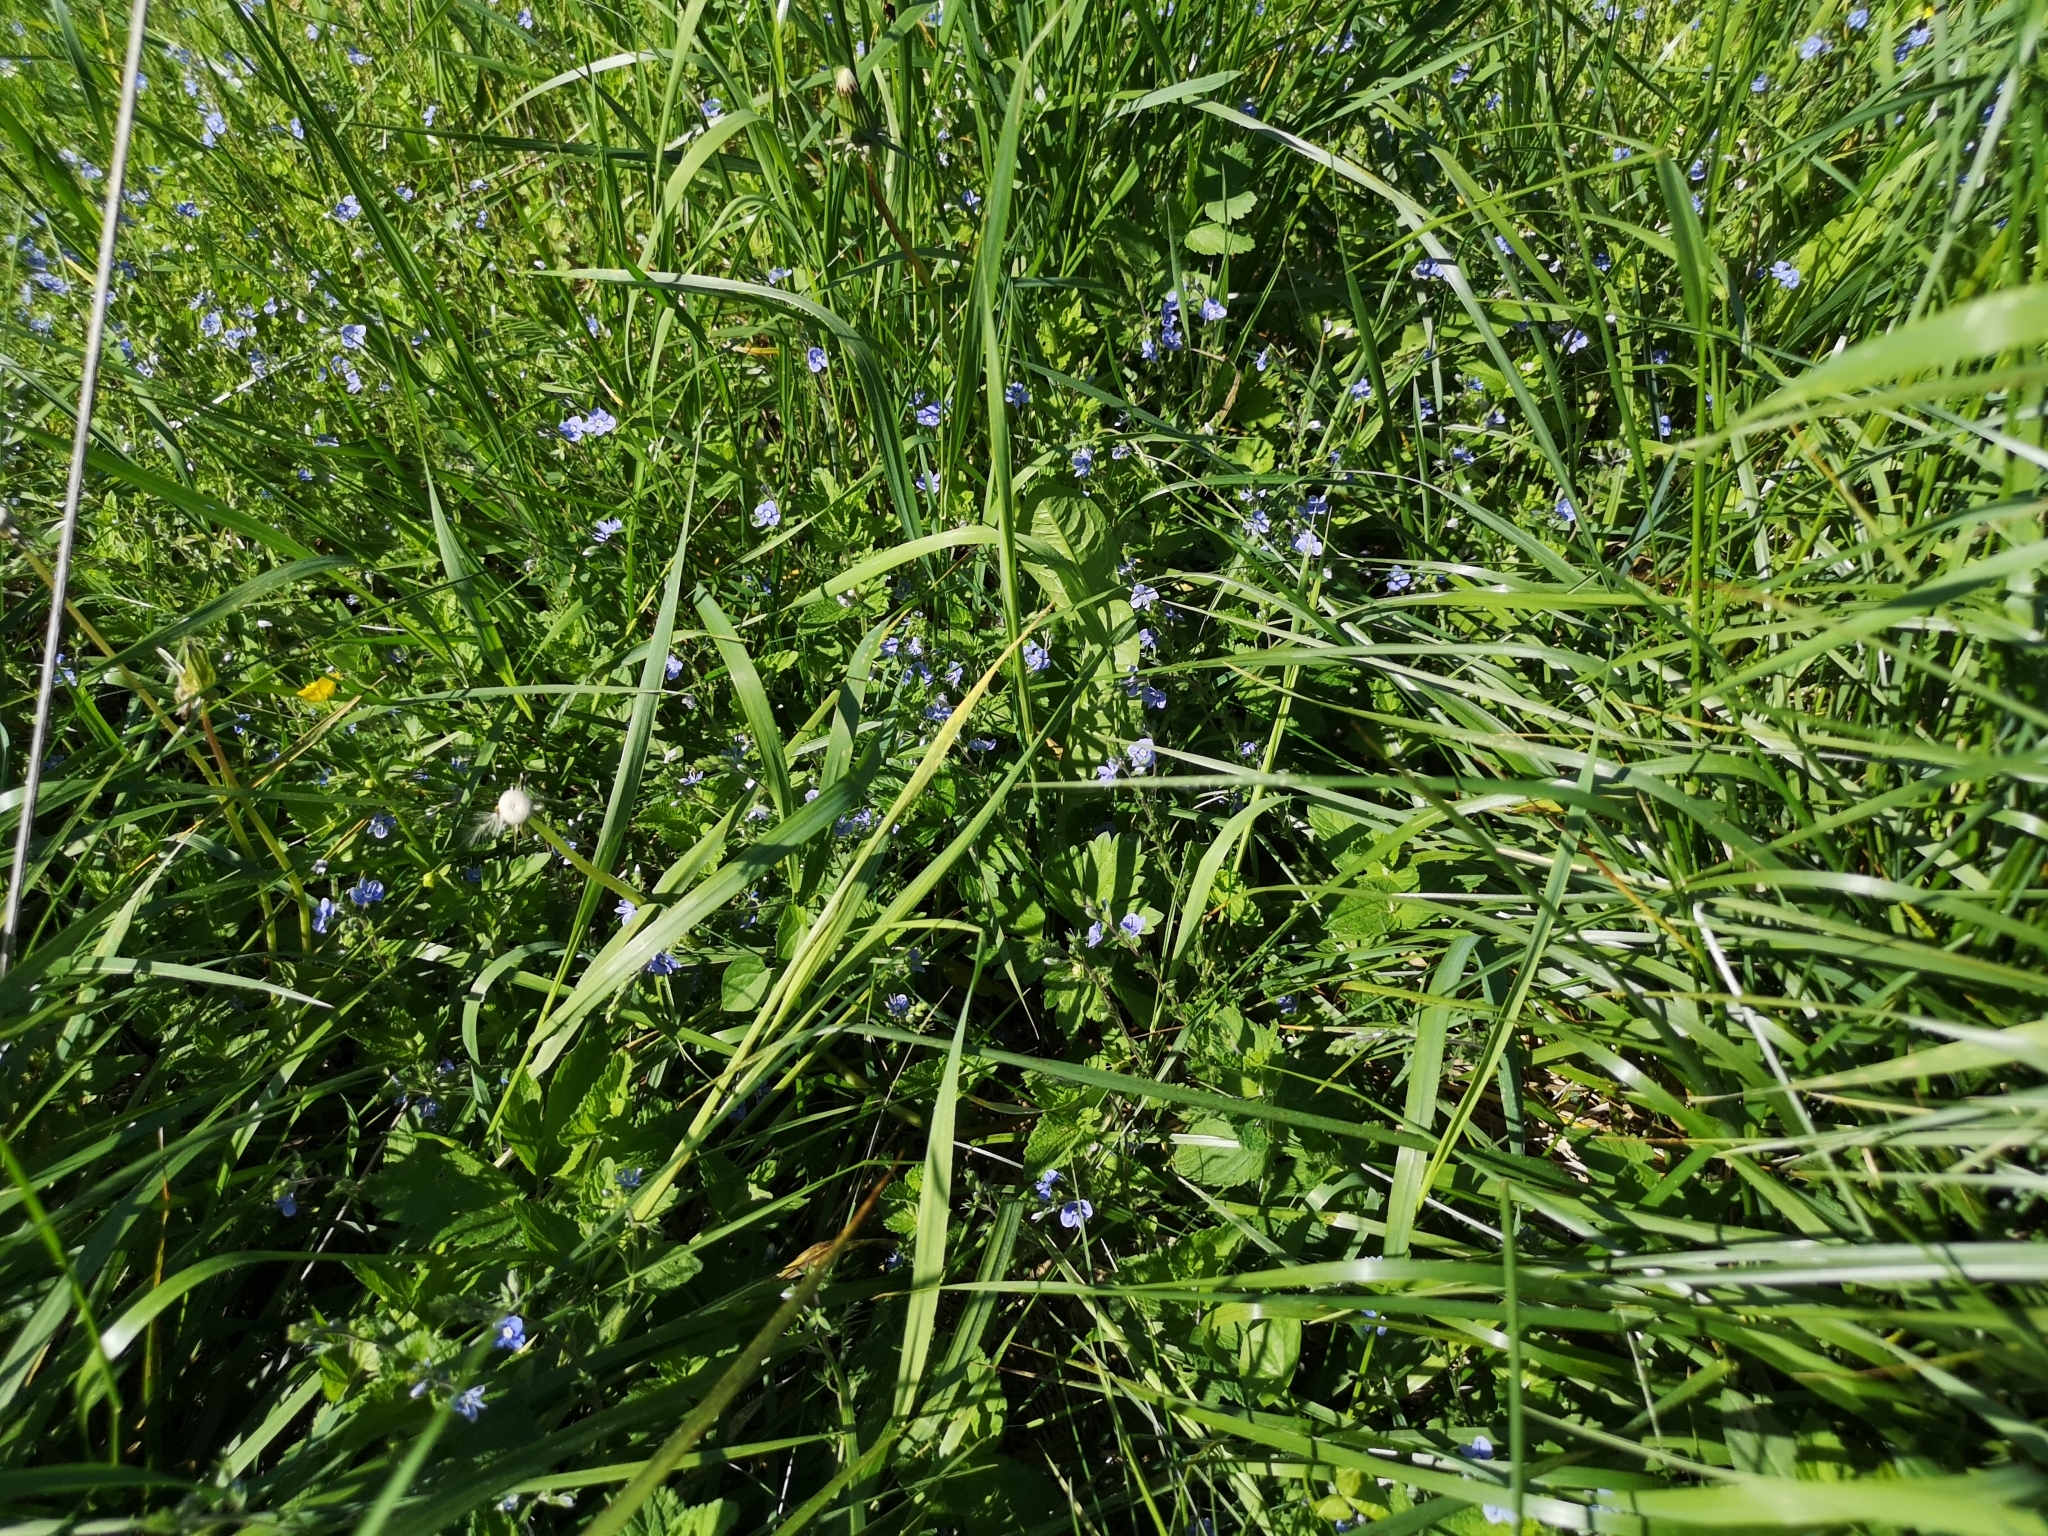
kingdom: Plantae
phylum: Tracheophyta
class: Magnoliopsida
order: Lamiales
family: Plantaginaceae
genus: Veronica
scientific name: Veronica chamaedrys
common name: Germander speedwell
